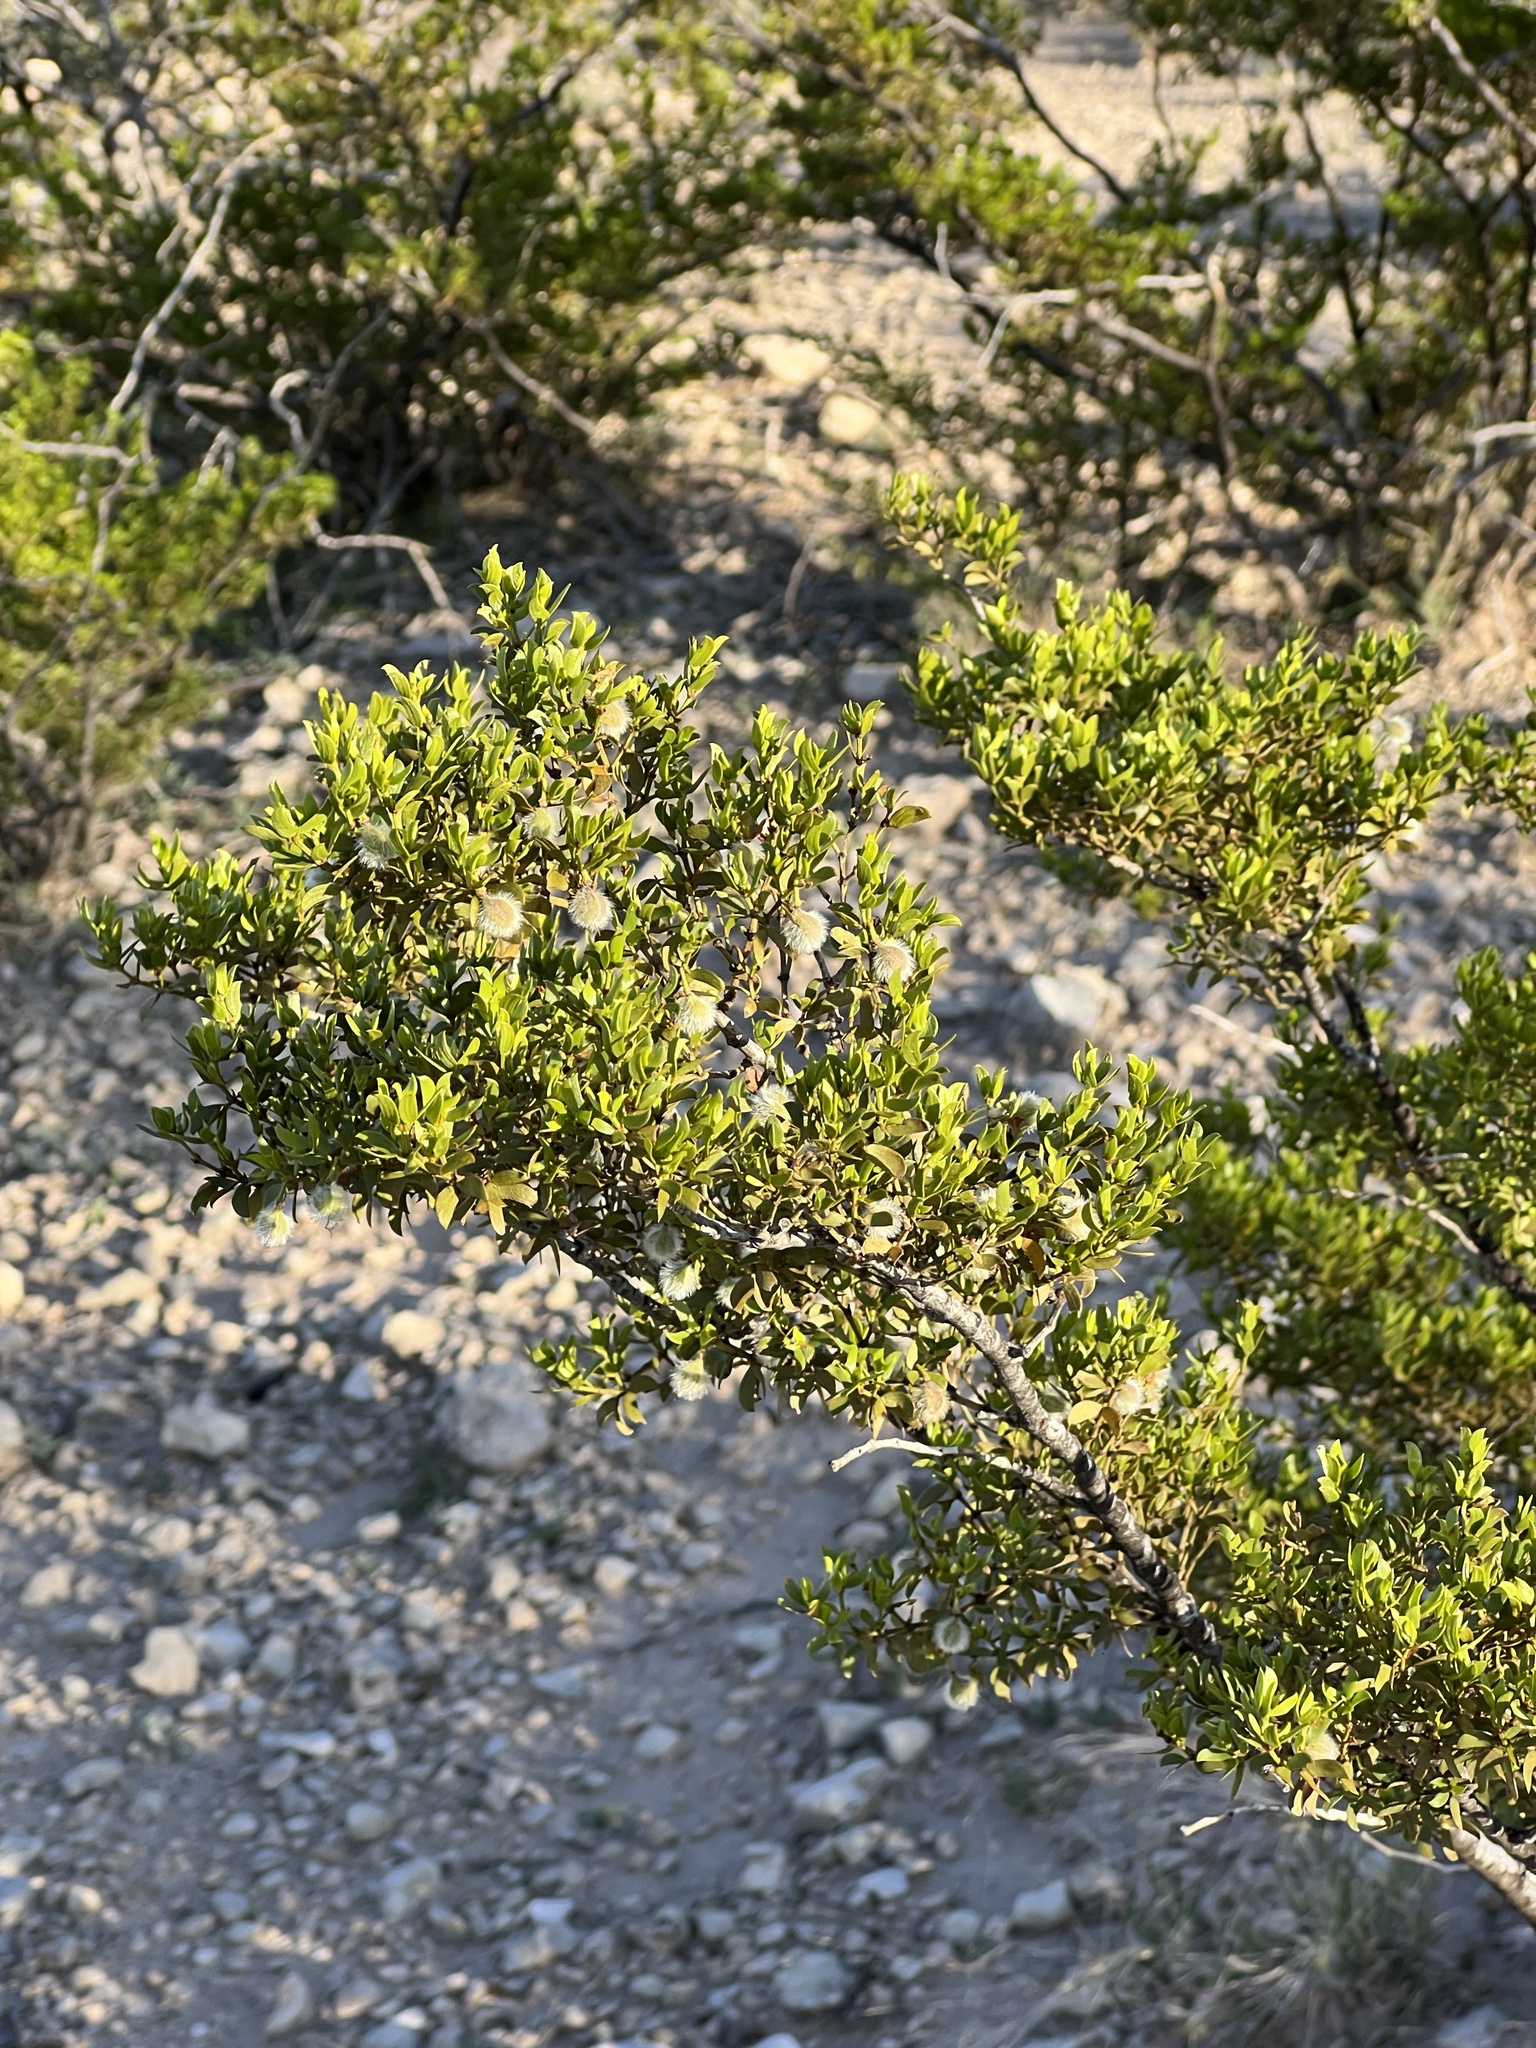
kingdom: Plantae
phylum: Tracheophyta
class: Magnoliopsida
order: Zygophyllales
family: Zygophyllaceae
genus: Larrea
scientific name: Larrea tridentata
